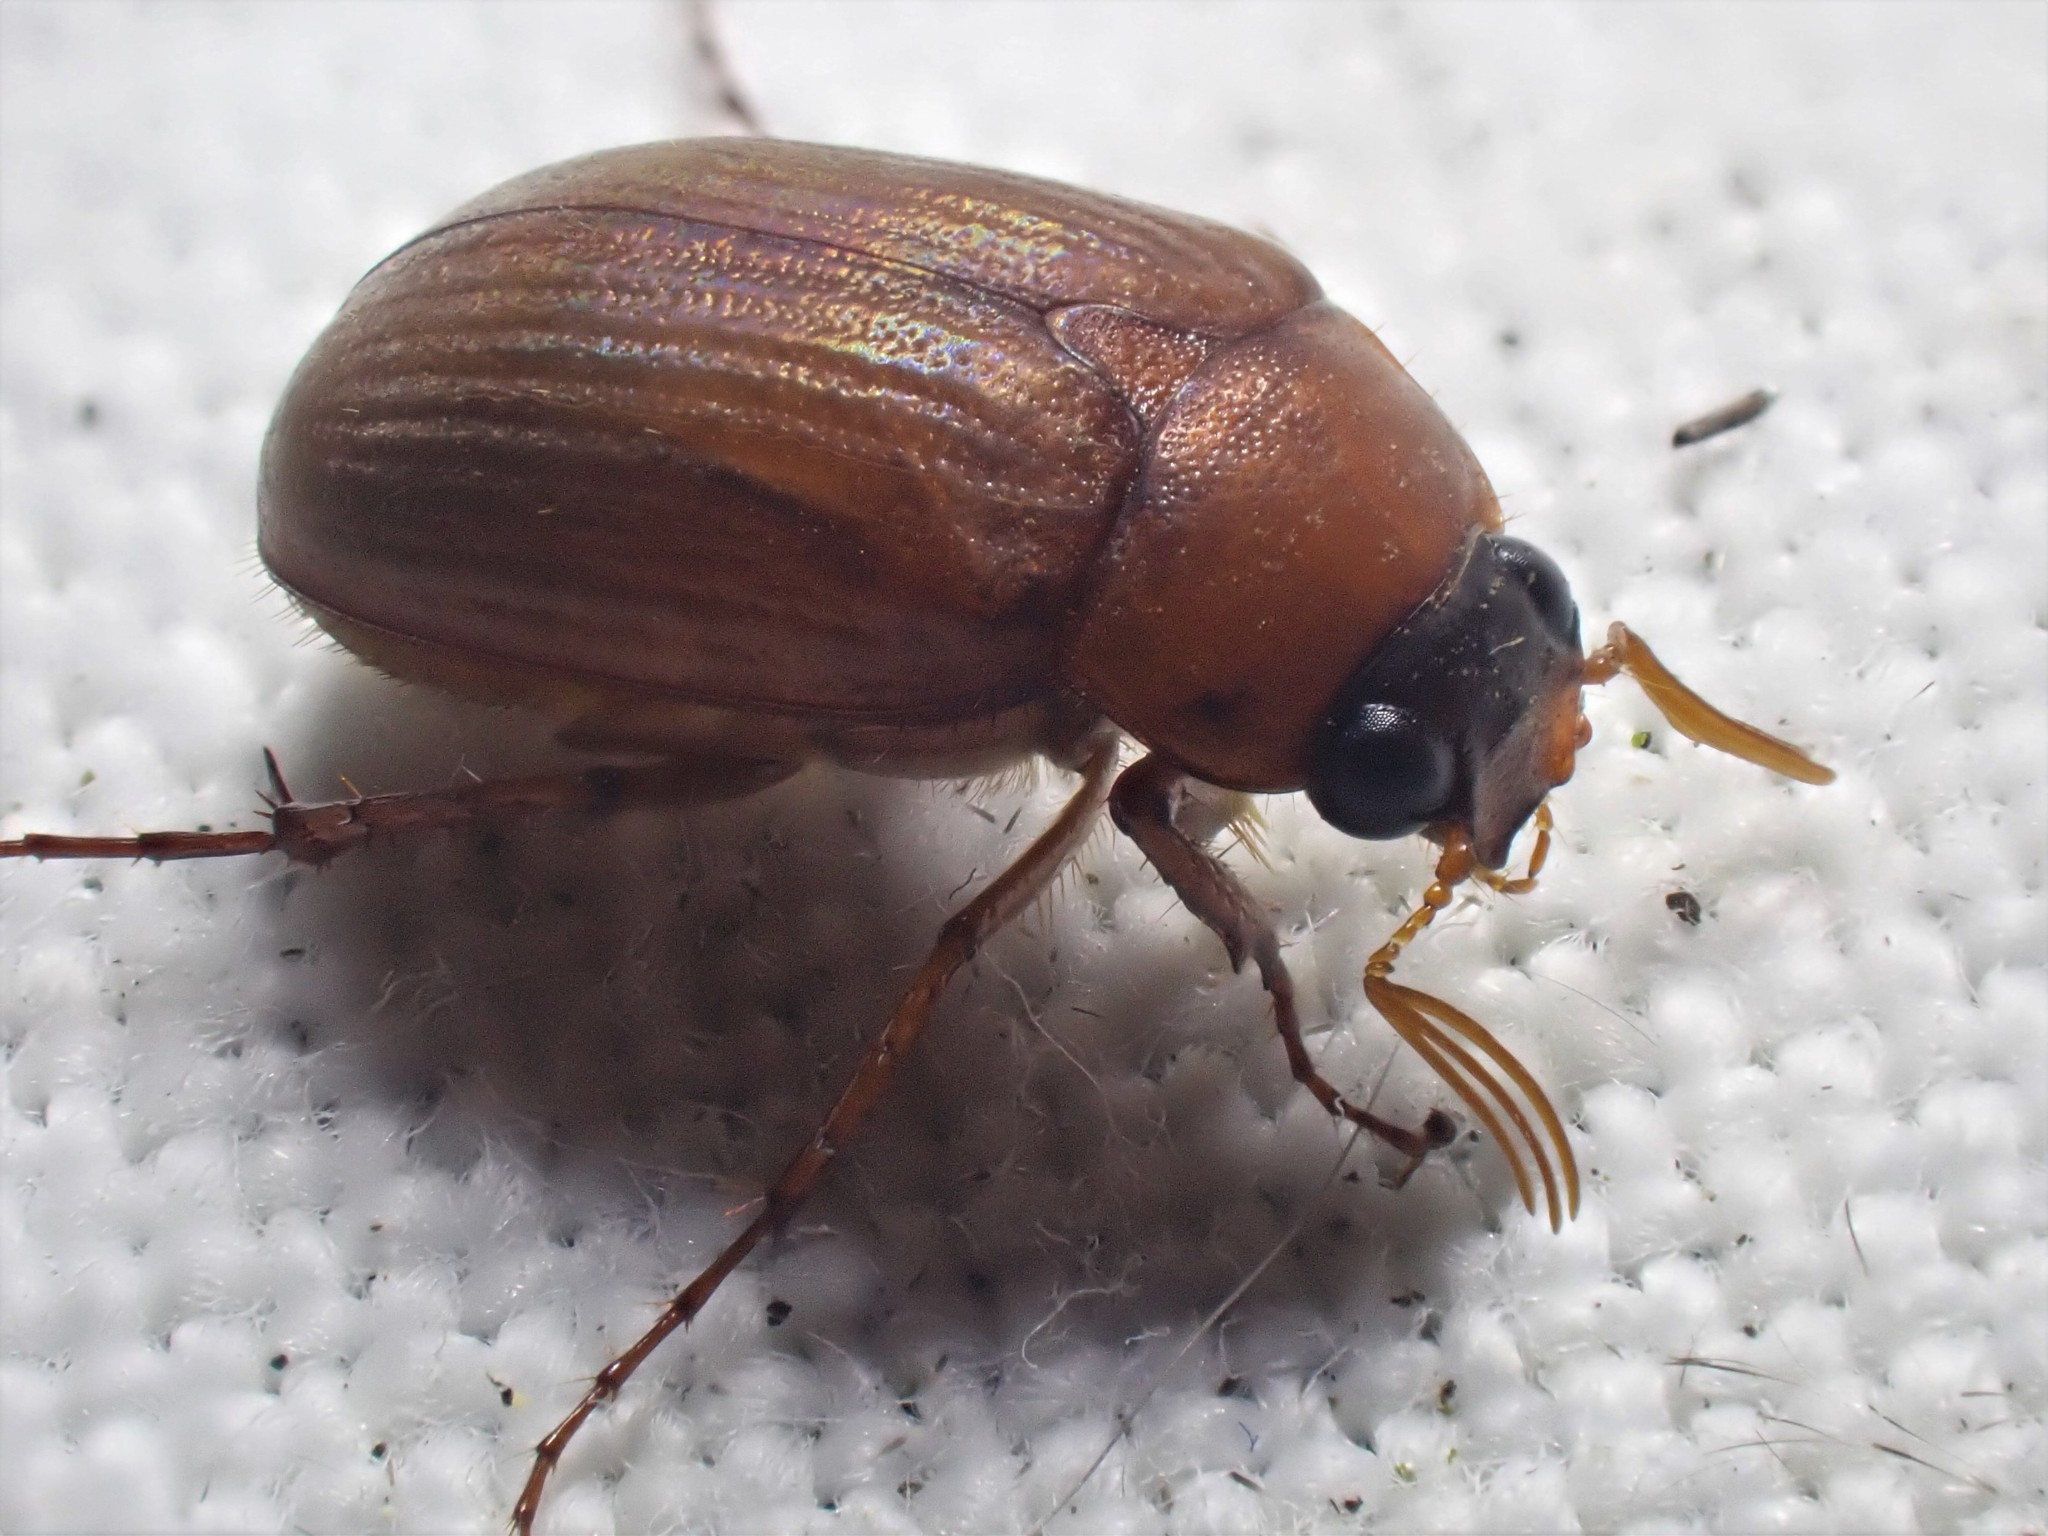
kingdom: Animalia
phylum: Arthropoda
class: Insecta
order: Coleoptera
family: Scarabaeidae
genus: Serica
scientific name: Serica brunnea
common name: Brown chafer
